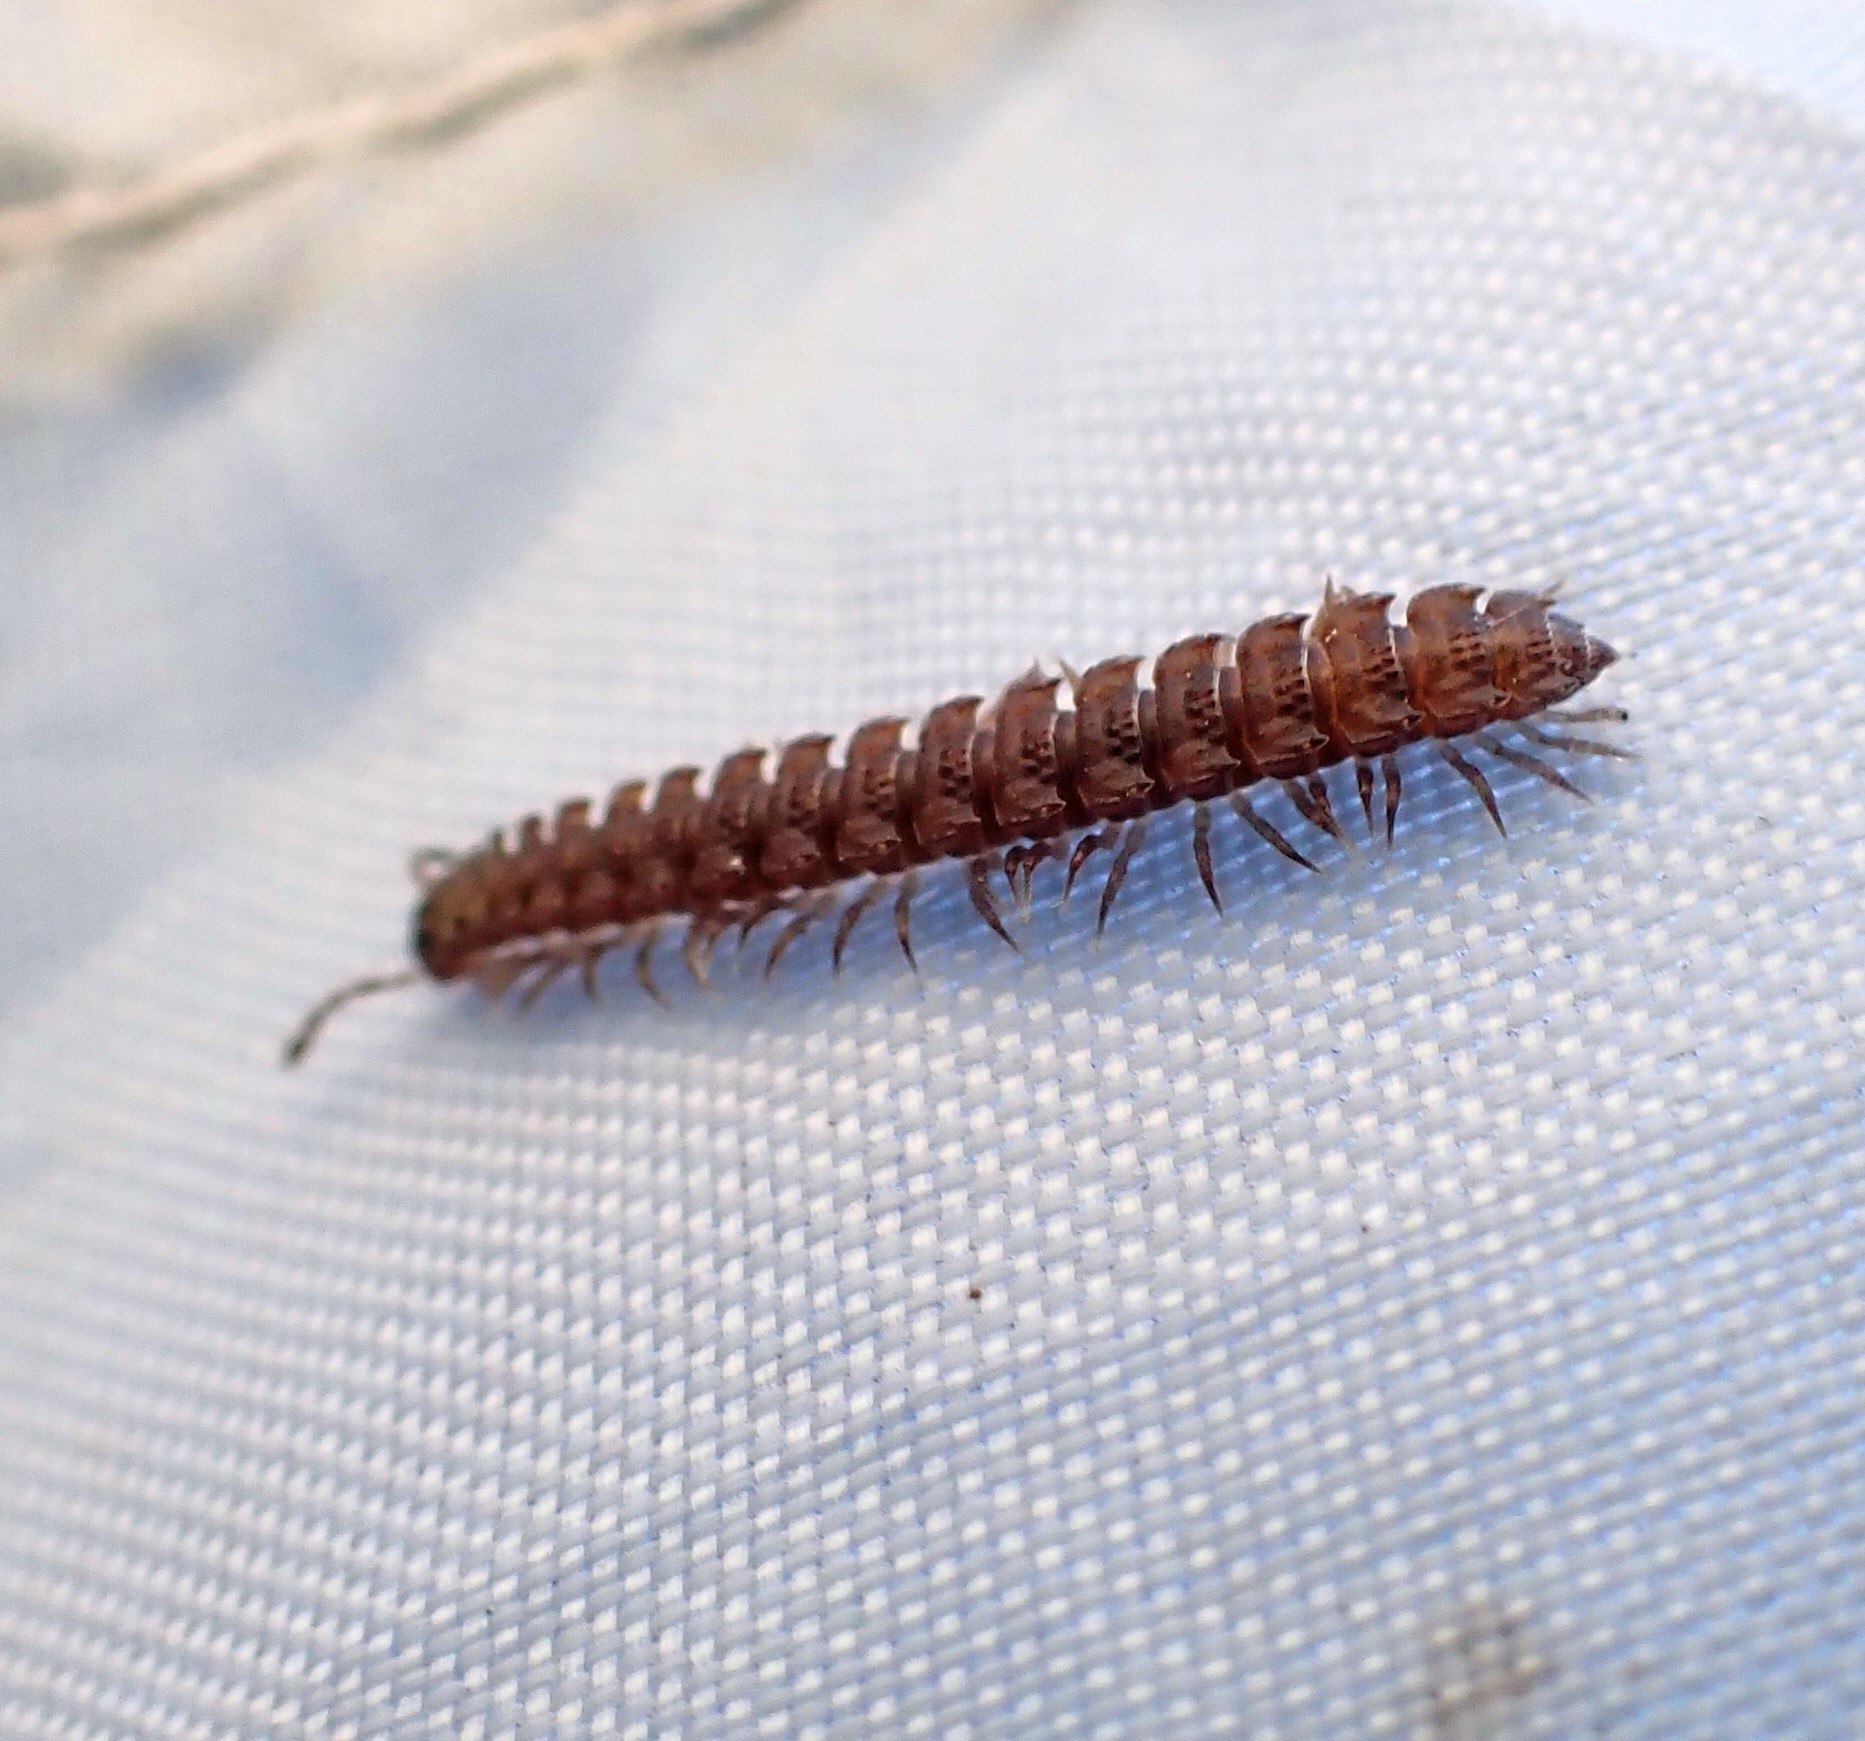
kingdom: Animalia
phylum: Arthropoda
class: Diplopoda
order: Polydesmida
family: Polydesmidae
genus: Polydesmus
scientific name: Polydesmus angustus
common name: Flat millipede
